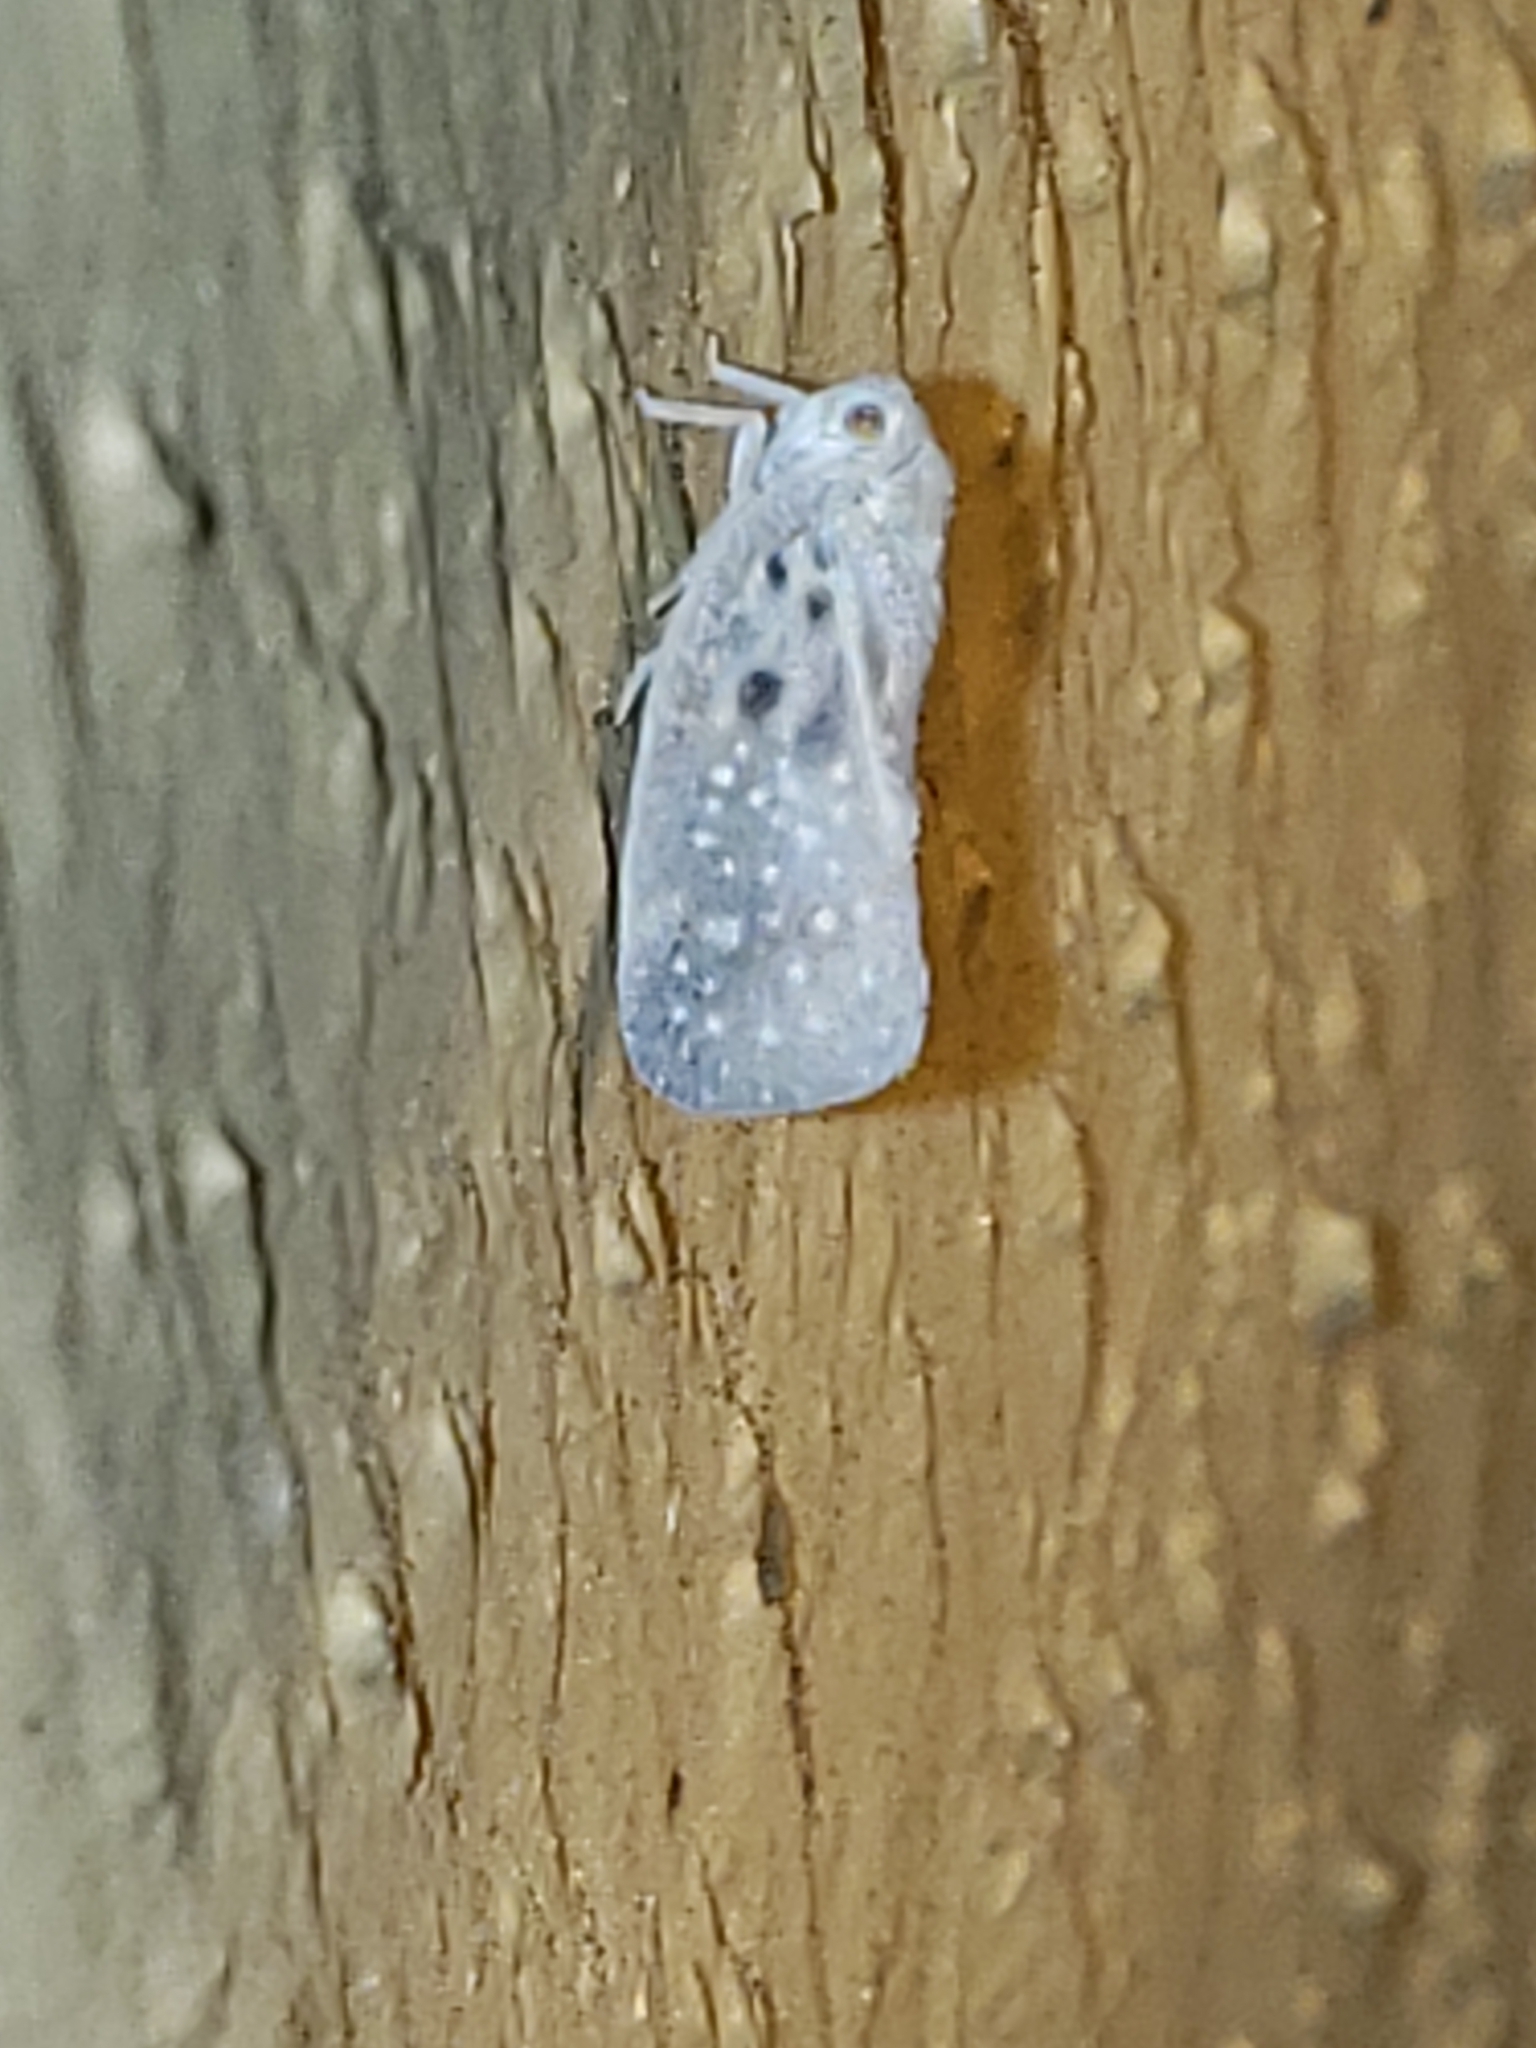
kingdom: Animalia
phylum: Arthropoda
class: Insecta
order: Hemiptera
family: Flatidae
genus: Metcalfa
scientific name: Metcalfa pruinosa
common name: Citrus flatid planthopper
